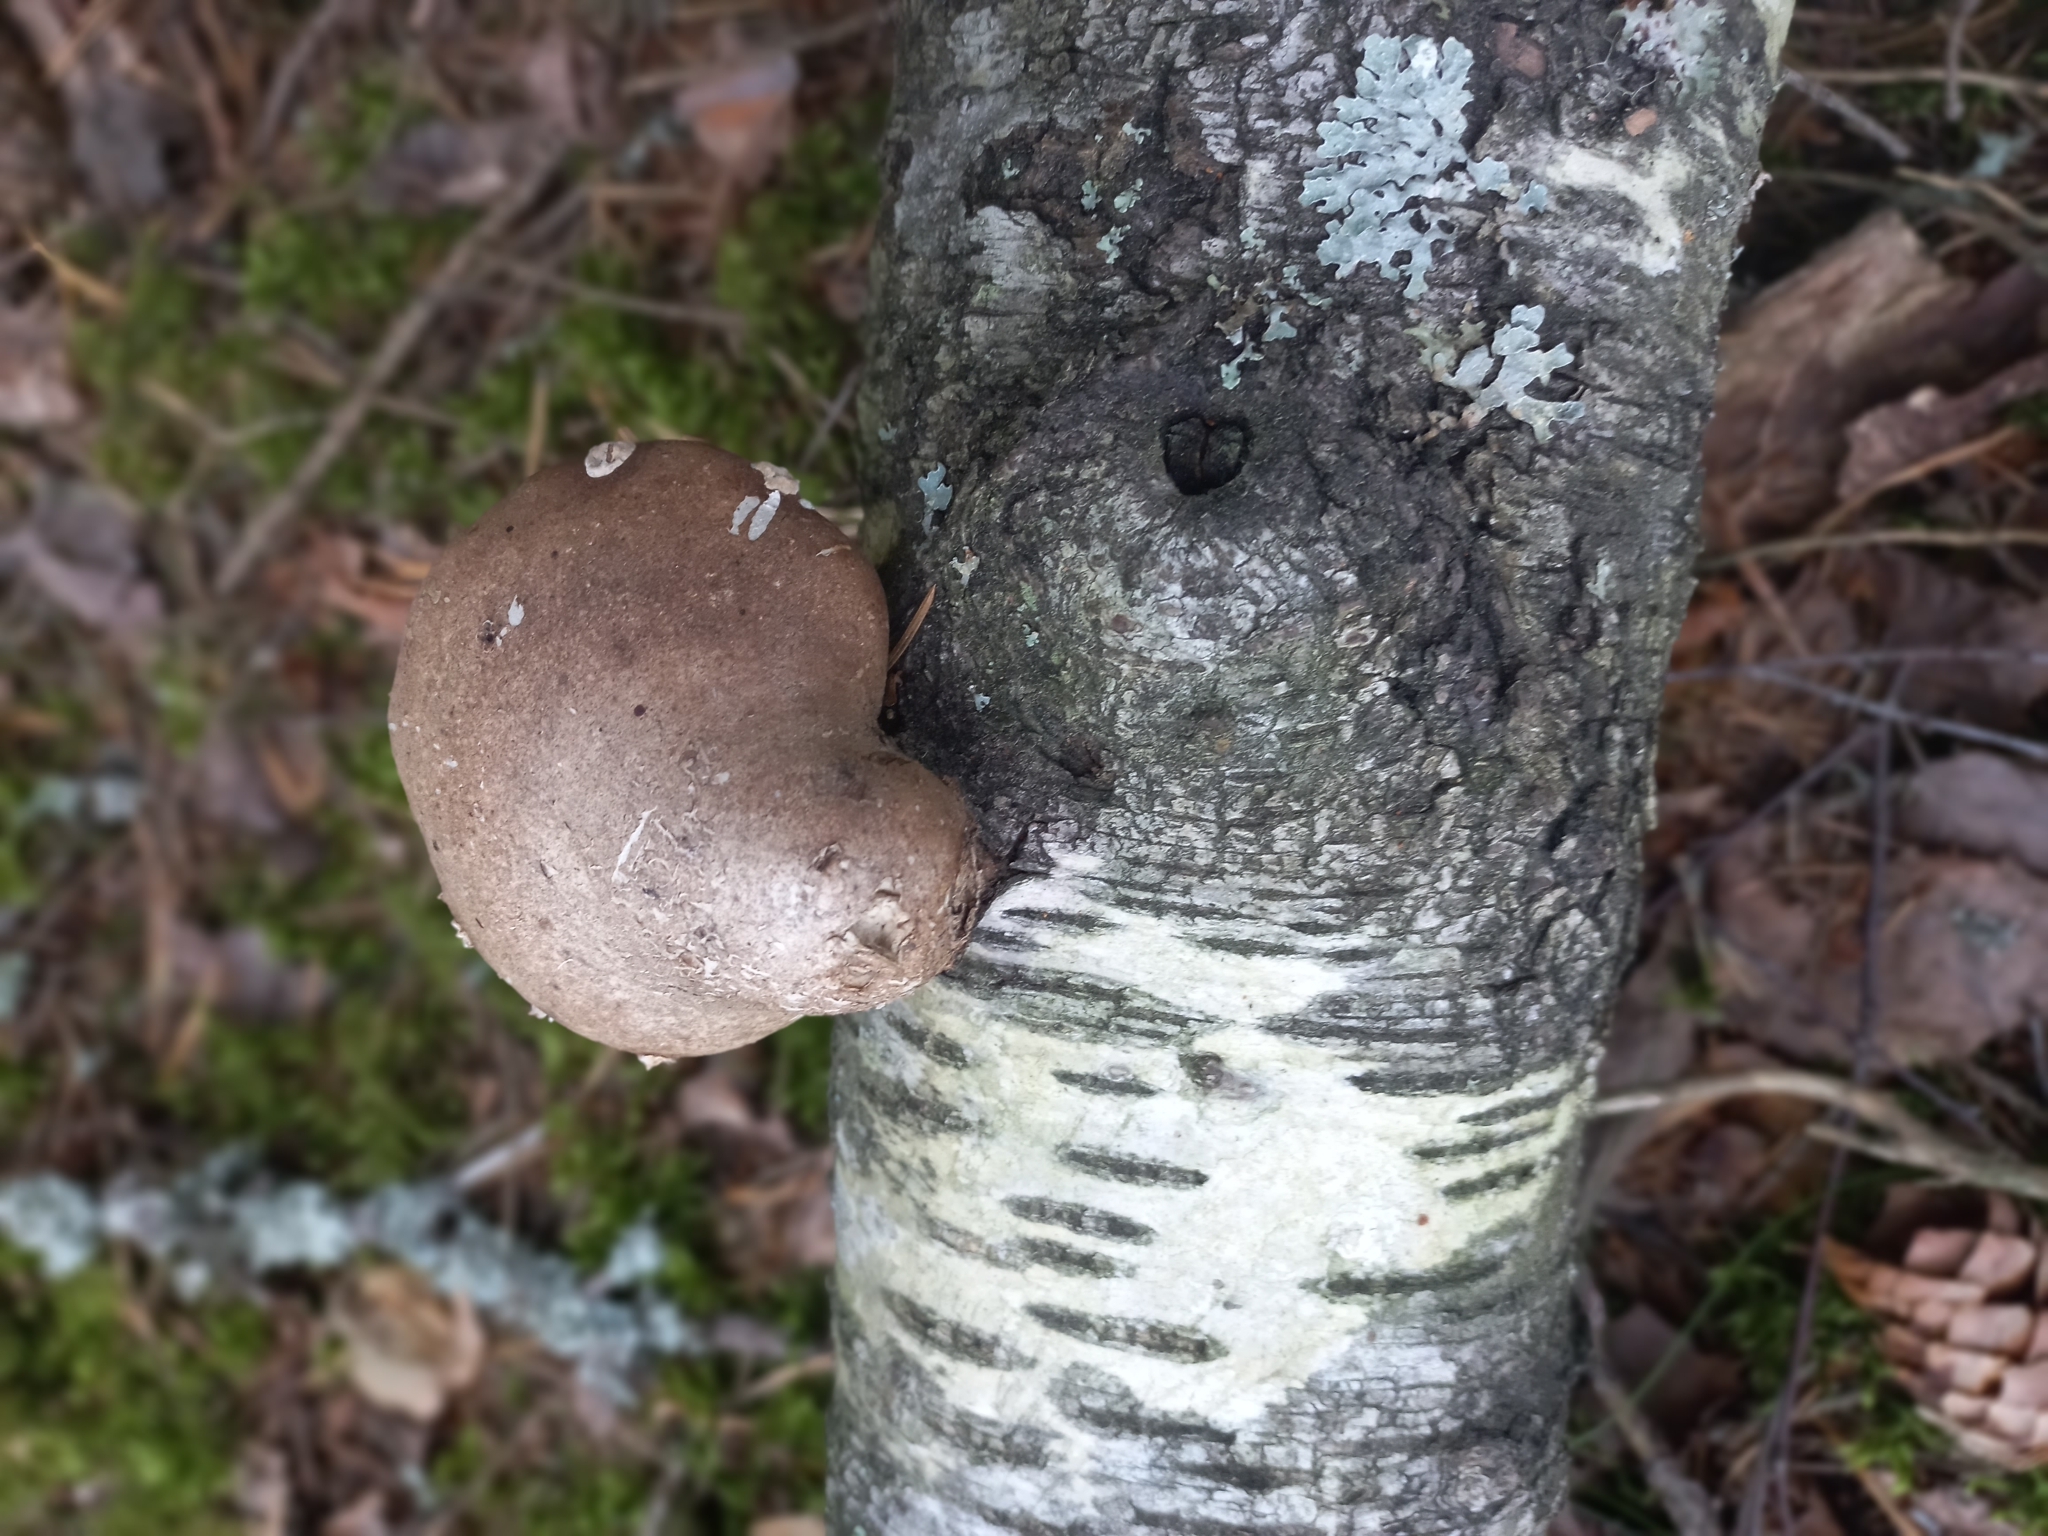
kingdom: Fungi
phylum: Basidiomycota
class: Agaricomycetes
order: Polyporales
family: Fomitopsidaceae
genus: Fomitopsis
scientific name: Fomitopsis betulina
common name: Birch polypore
